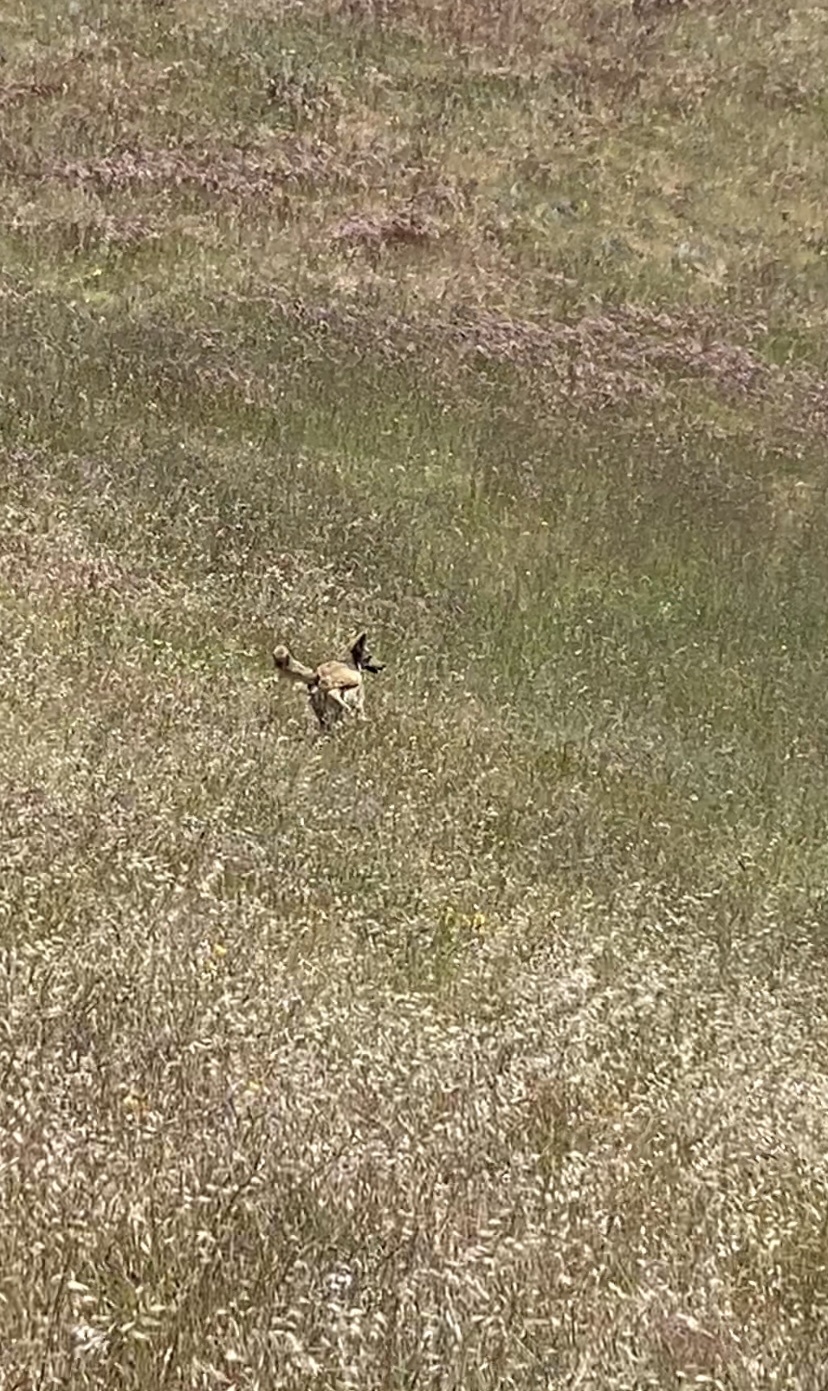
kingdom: Animalia
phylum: Chordata
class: Mammalia
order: Carnivora
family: Canidae
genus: Canis
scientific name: Canis latrans
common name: Coyote
